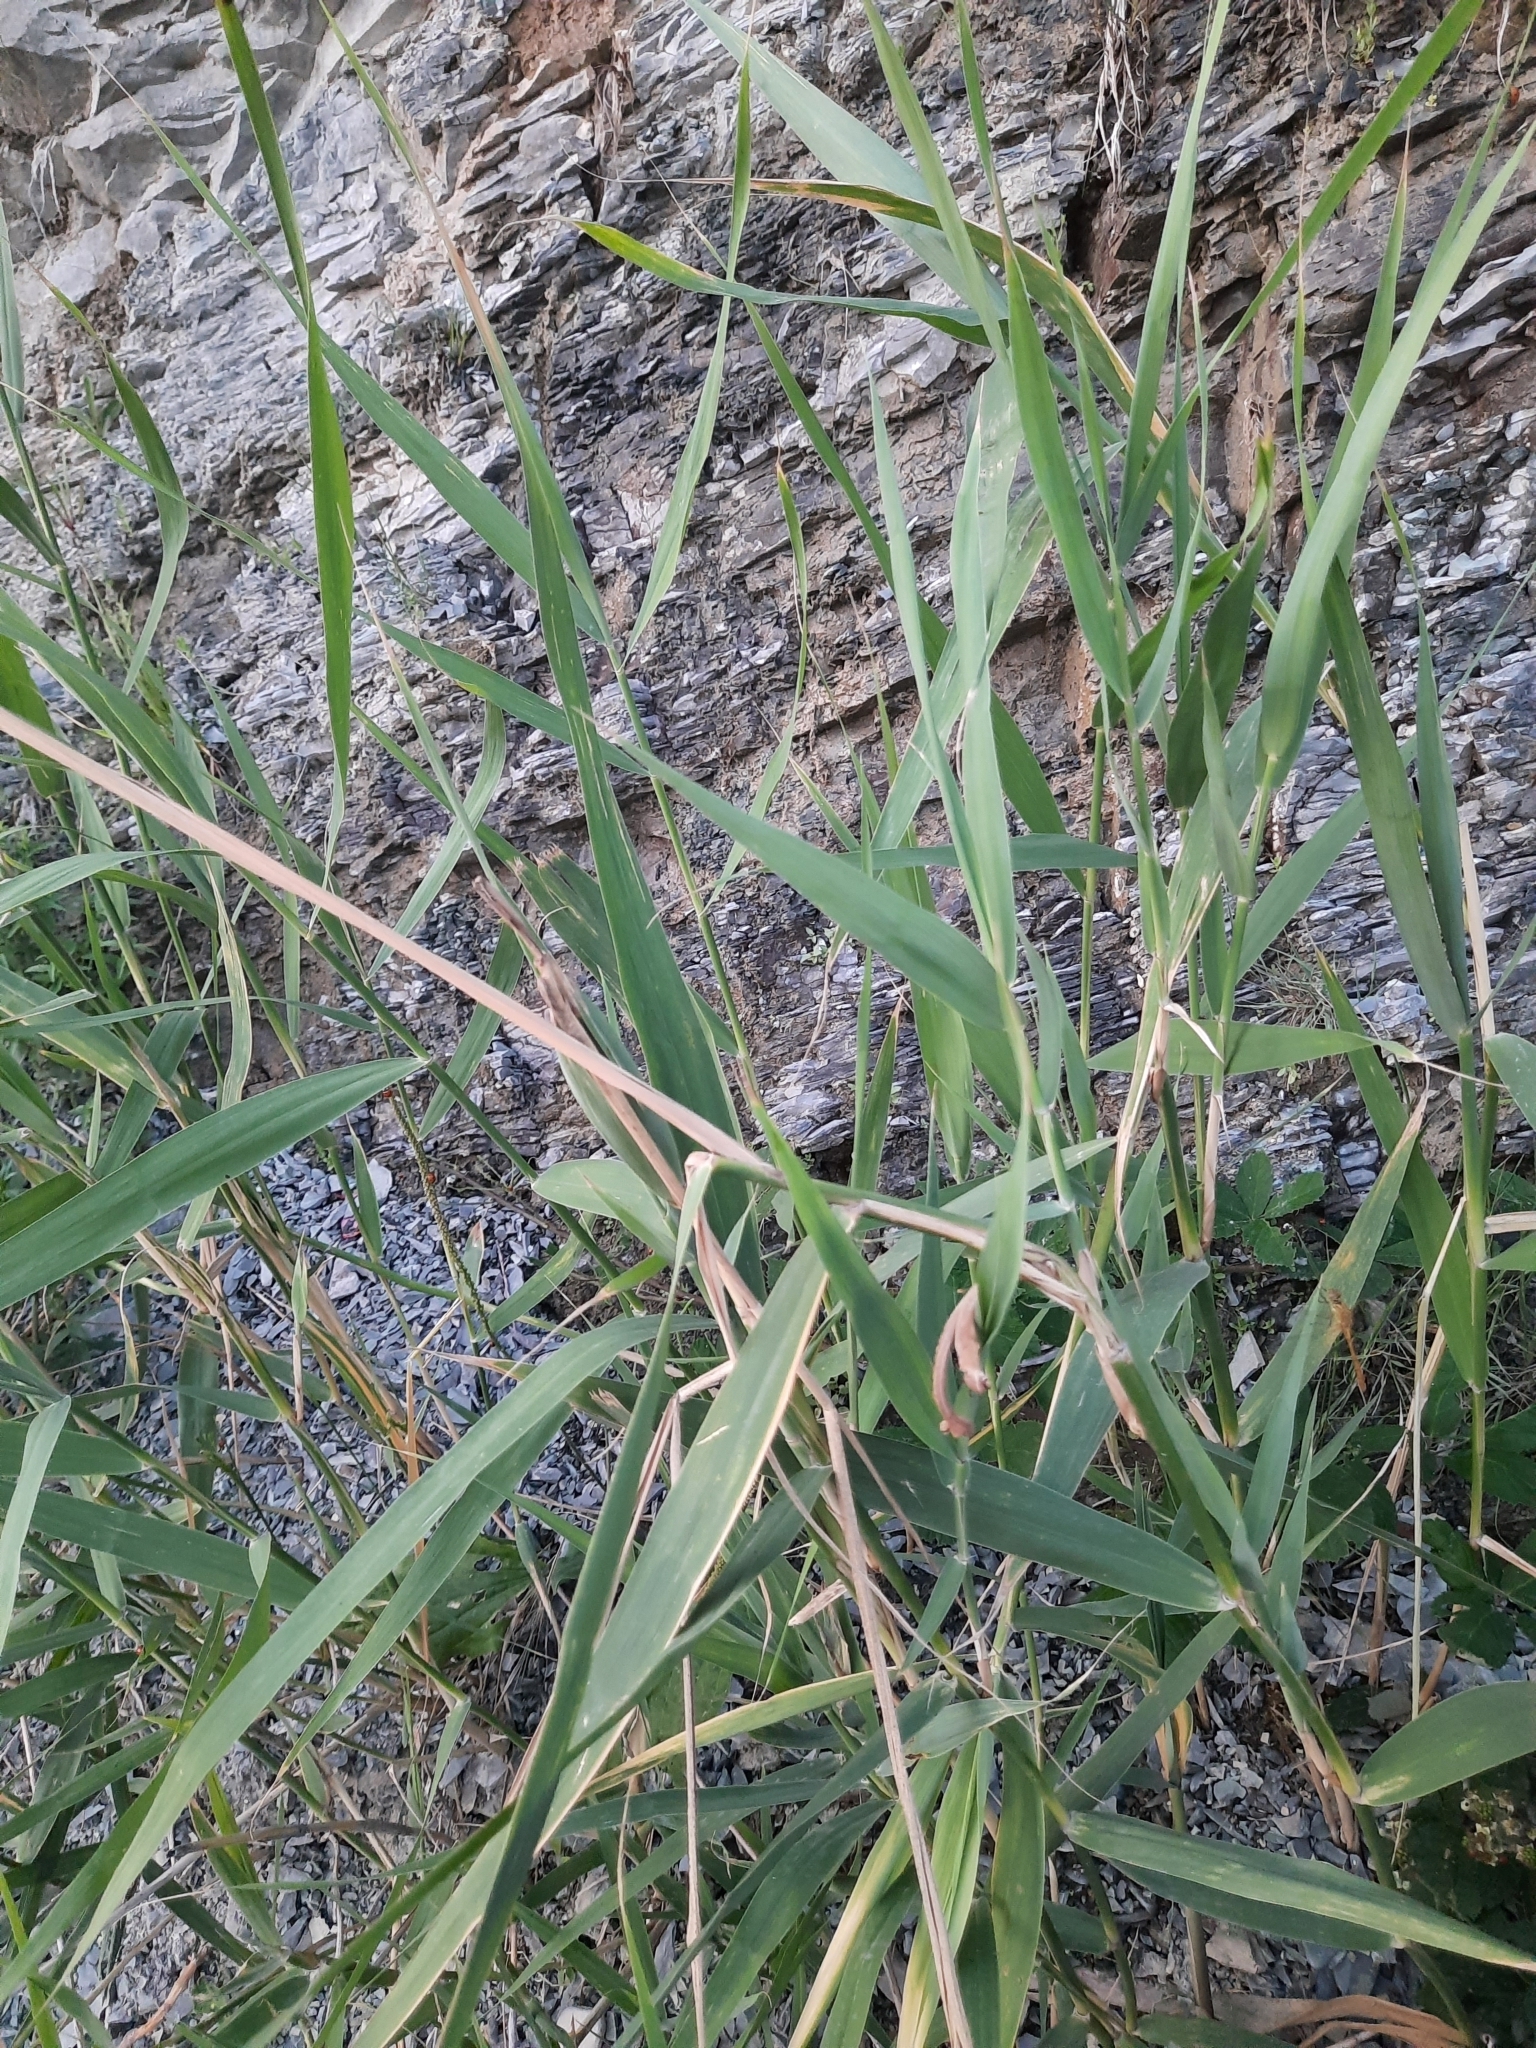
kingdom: Plantae
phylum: Tracheophyta
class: Liliopsida
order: Poales
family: Poaceae
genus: Phragmites
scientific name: Phragmites australis
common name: Common reed
